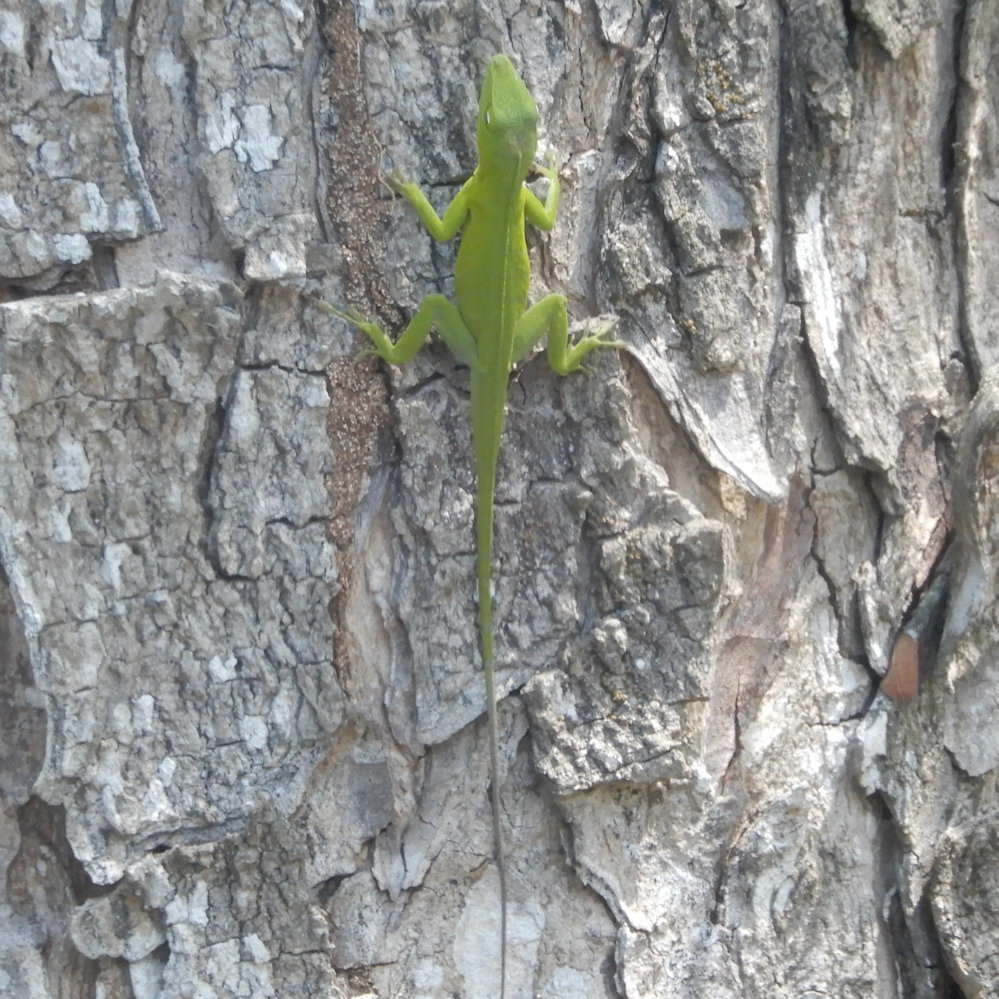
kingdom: Animalia
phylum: Chordata
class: Squamata
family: Dactyloidae
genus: Anolis
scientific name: Anolis garmani
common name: Jamaican giant anole
